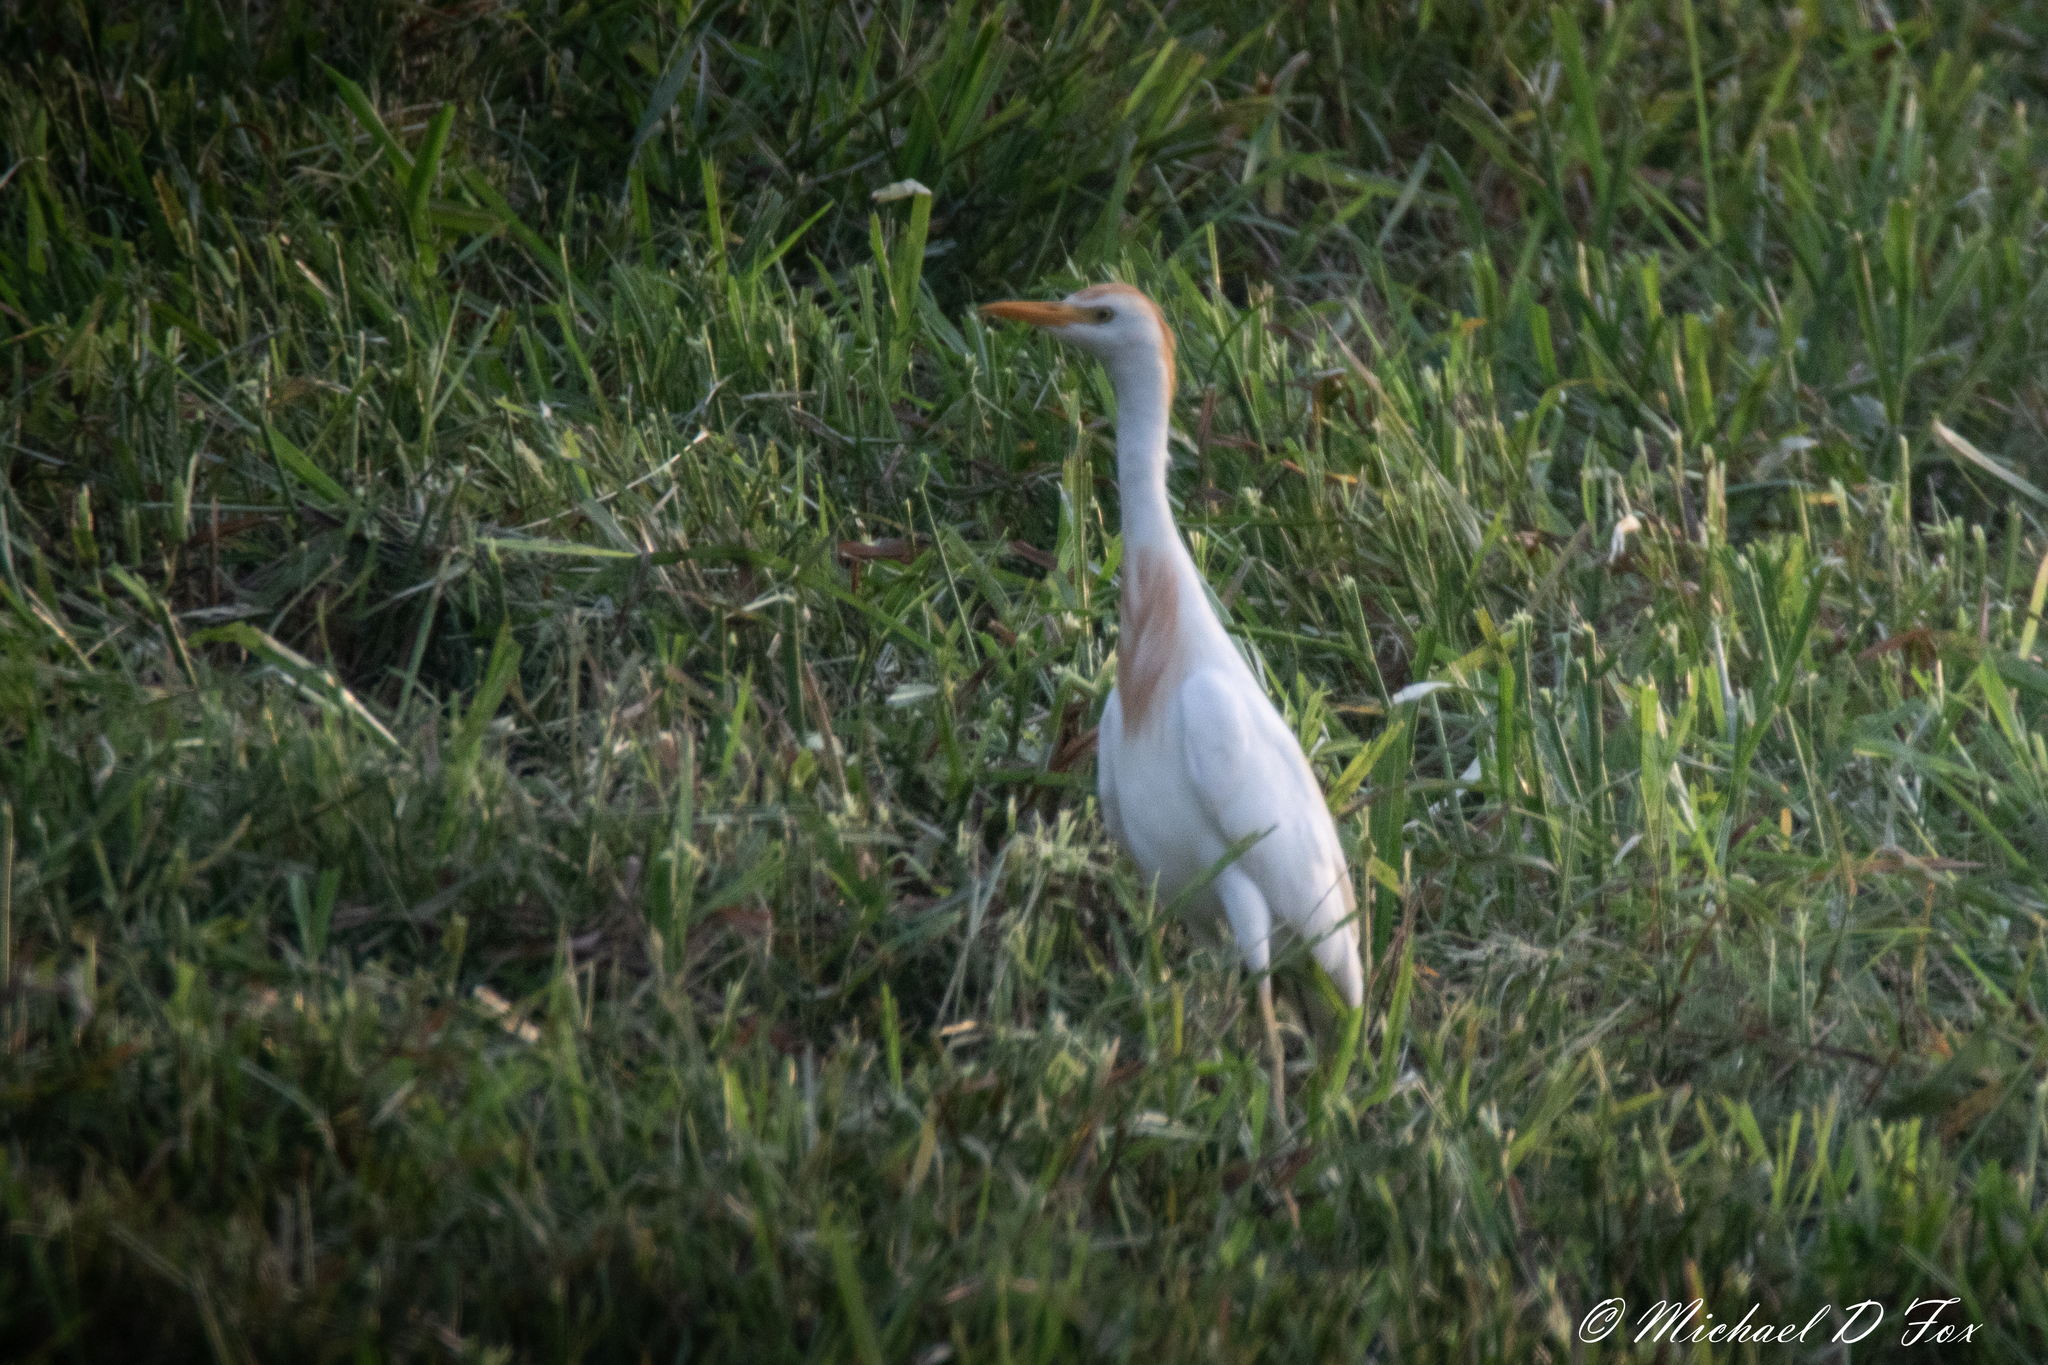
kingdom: Animalia
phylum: Chordata
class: Aves
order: Pelecaniformes
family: Ardeidae
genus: Bubulcus
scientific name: Bubulcus ibis
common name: Cattle egret
